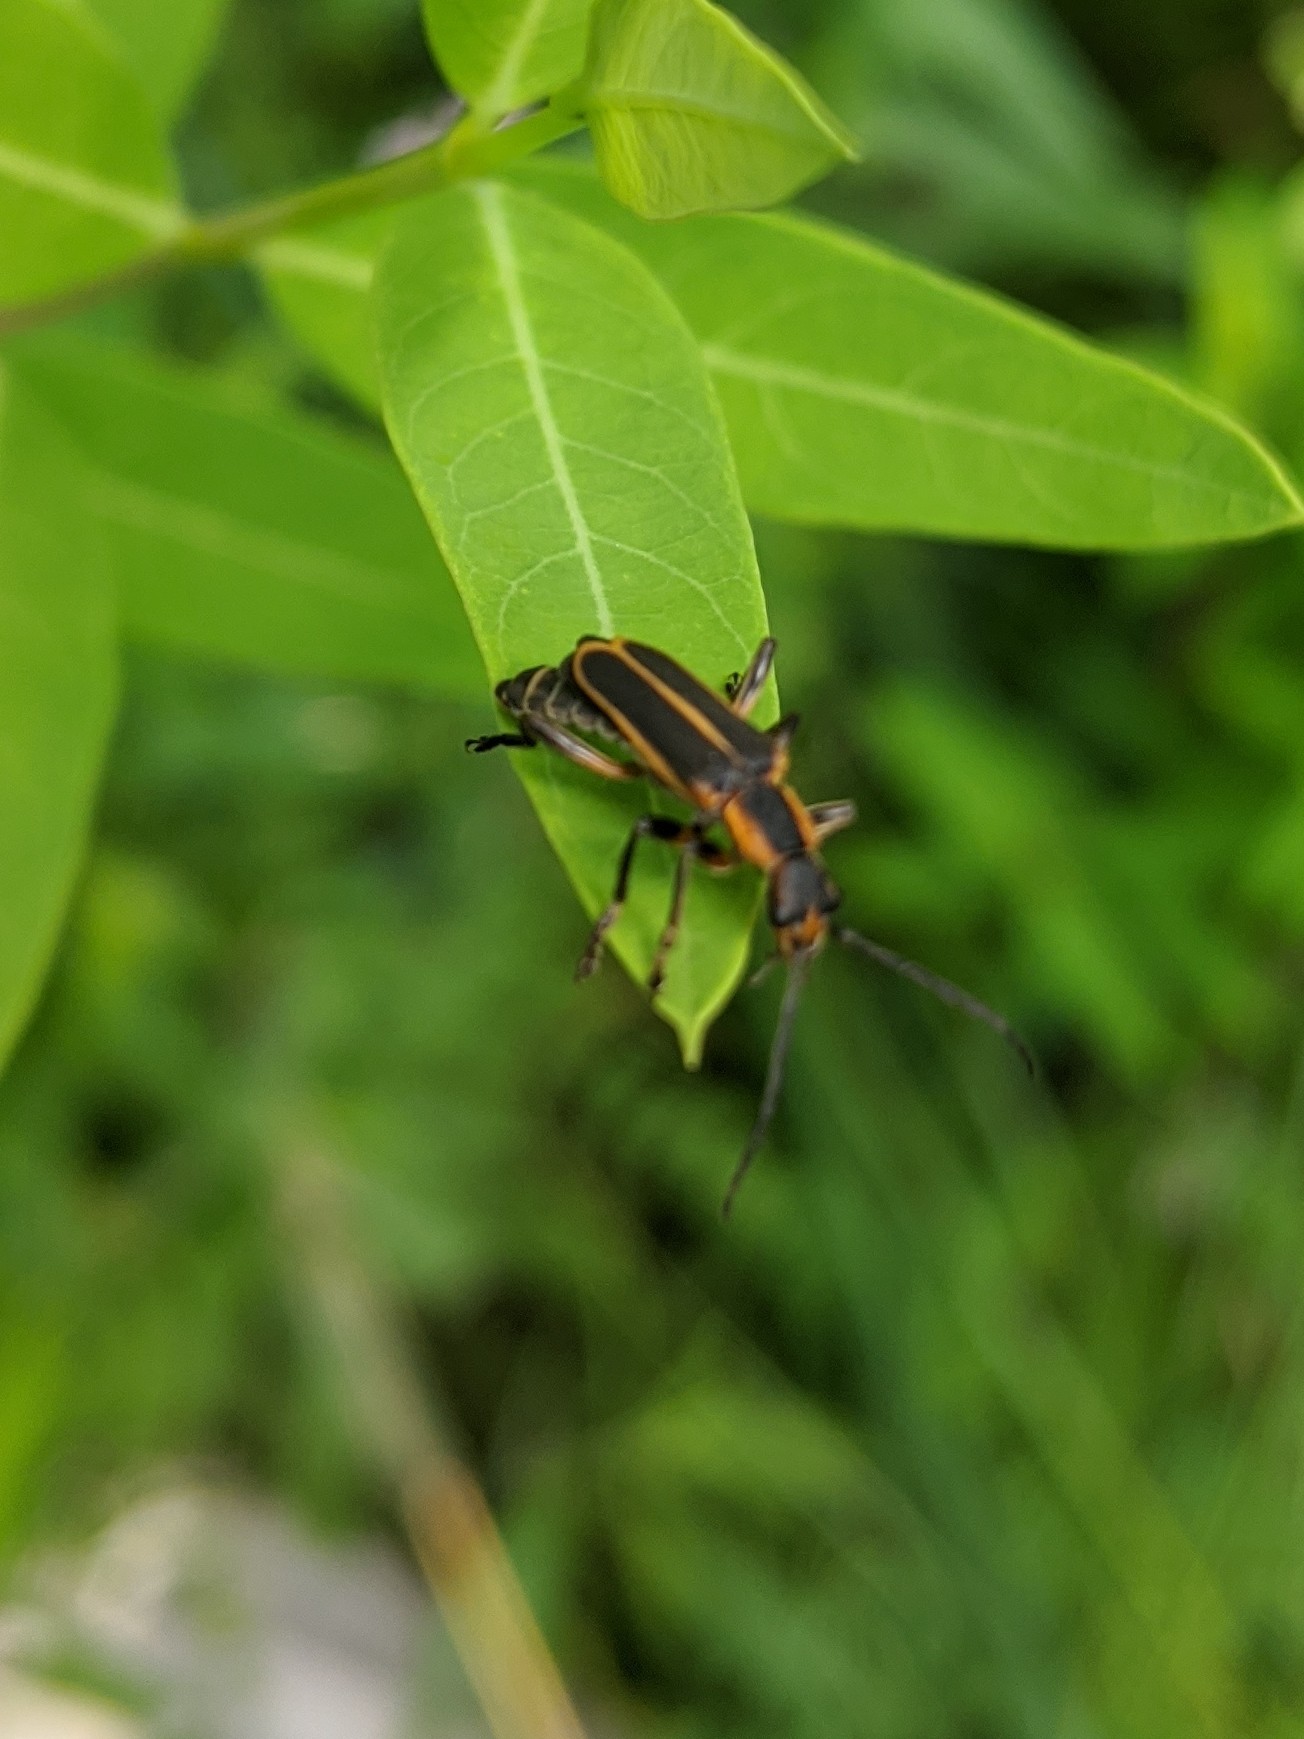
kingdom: Animalia
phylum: Arthropoda
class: Insecta
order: Coleoptera
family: Cantharidae
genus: Chauliognathus
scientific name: Chauliognathus marginatus
